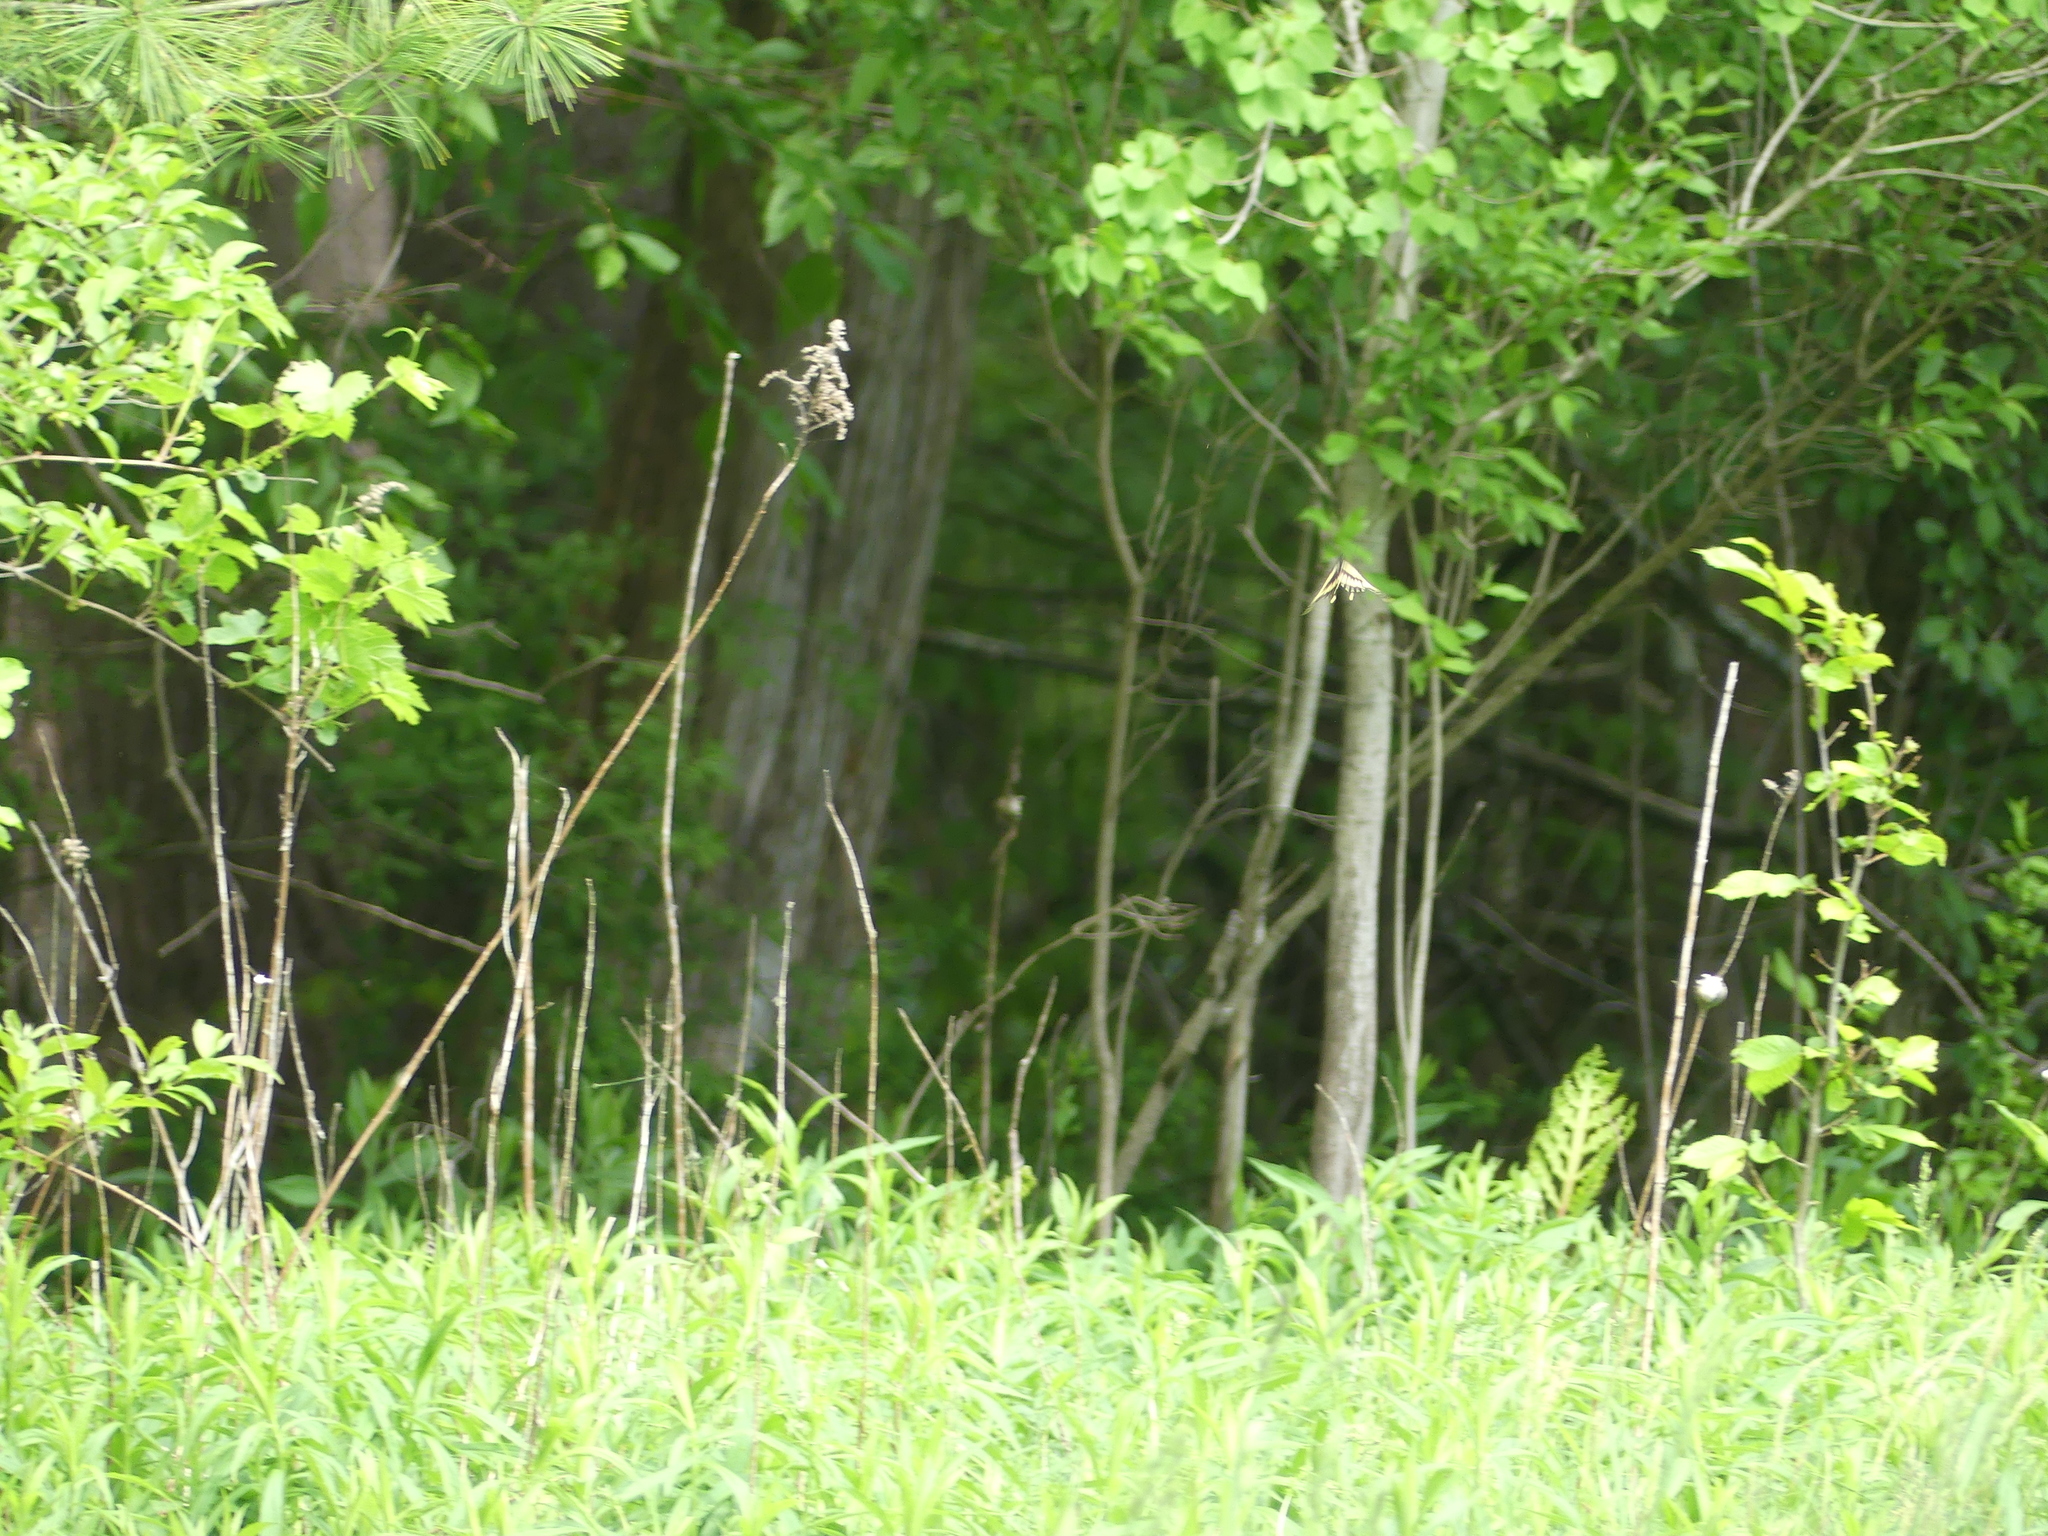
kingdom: Animalia
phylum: Arthropoda
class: Insecta
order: Lepidoptera
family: Papilionidae
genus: Papilio
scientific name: Papilio cresphontes
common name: Giant swallowtail
